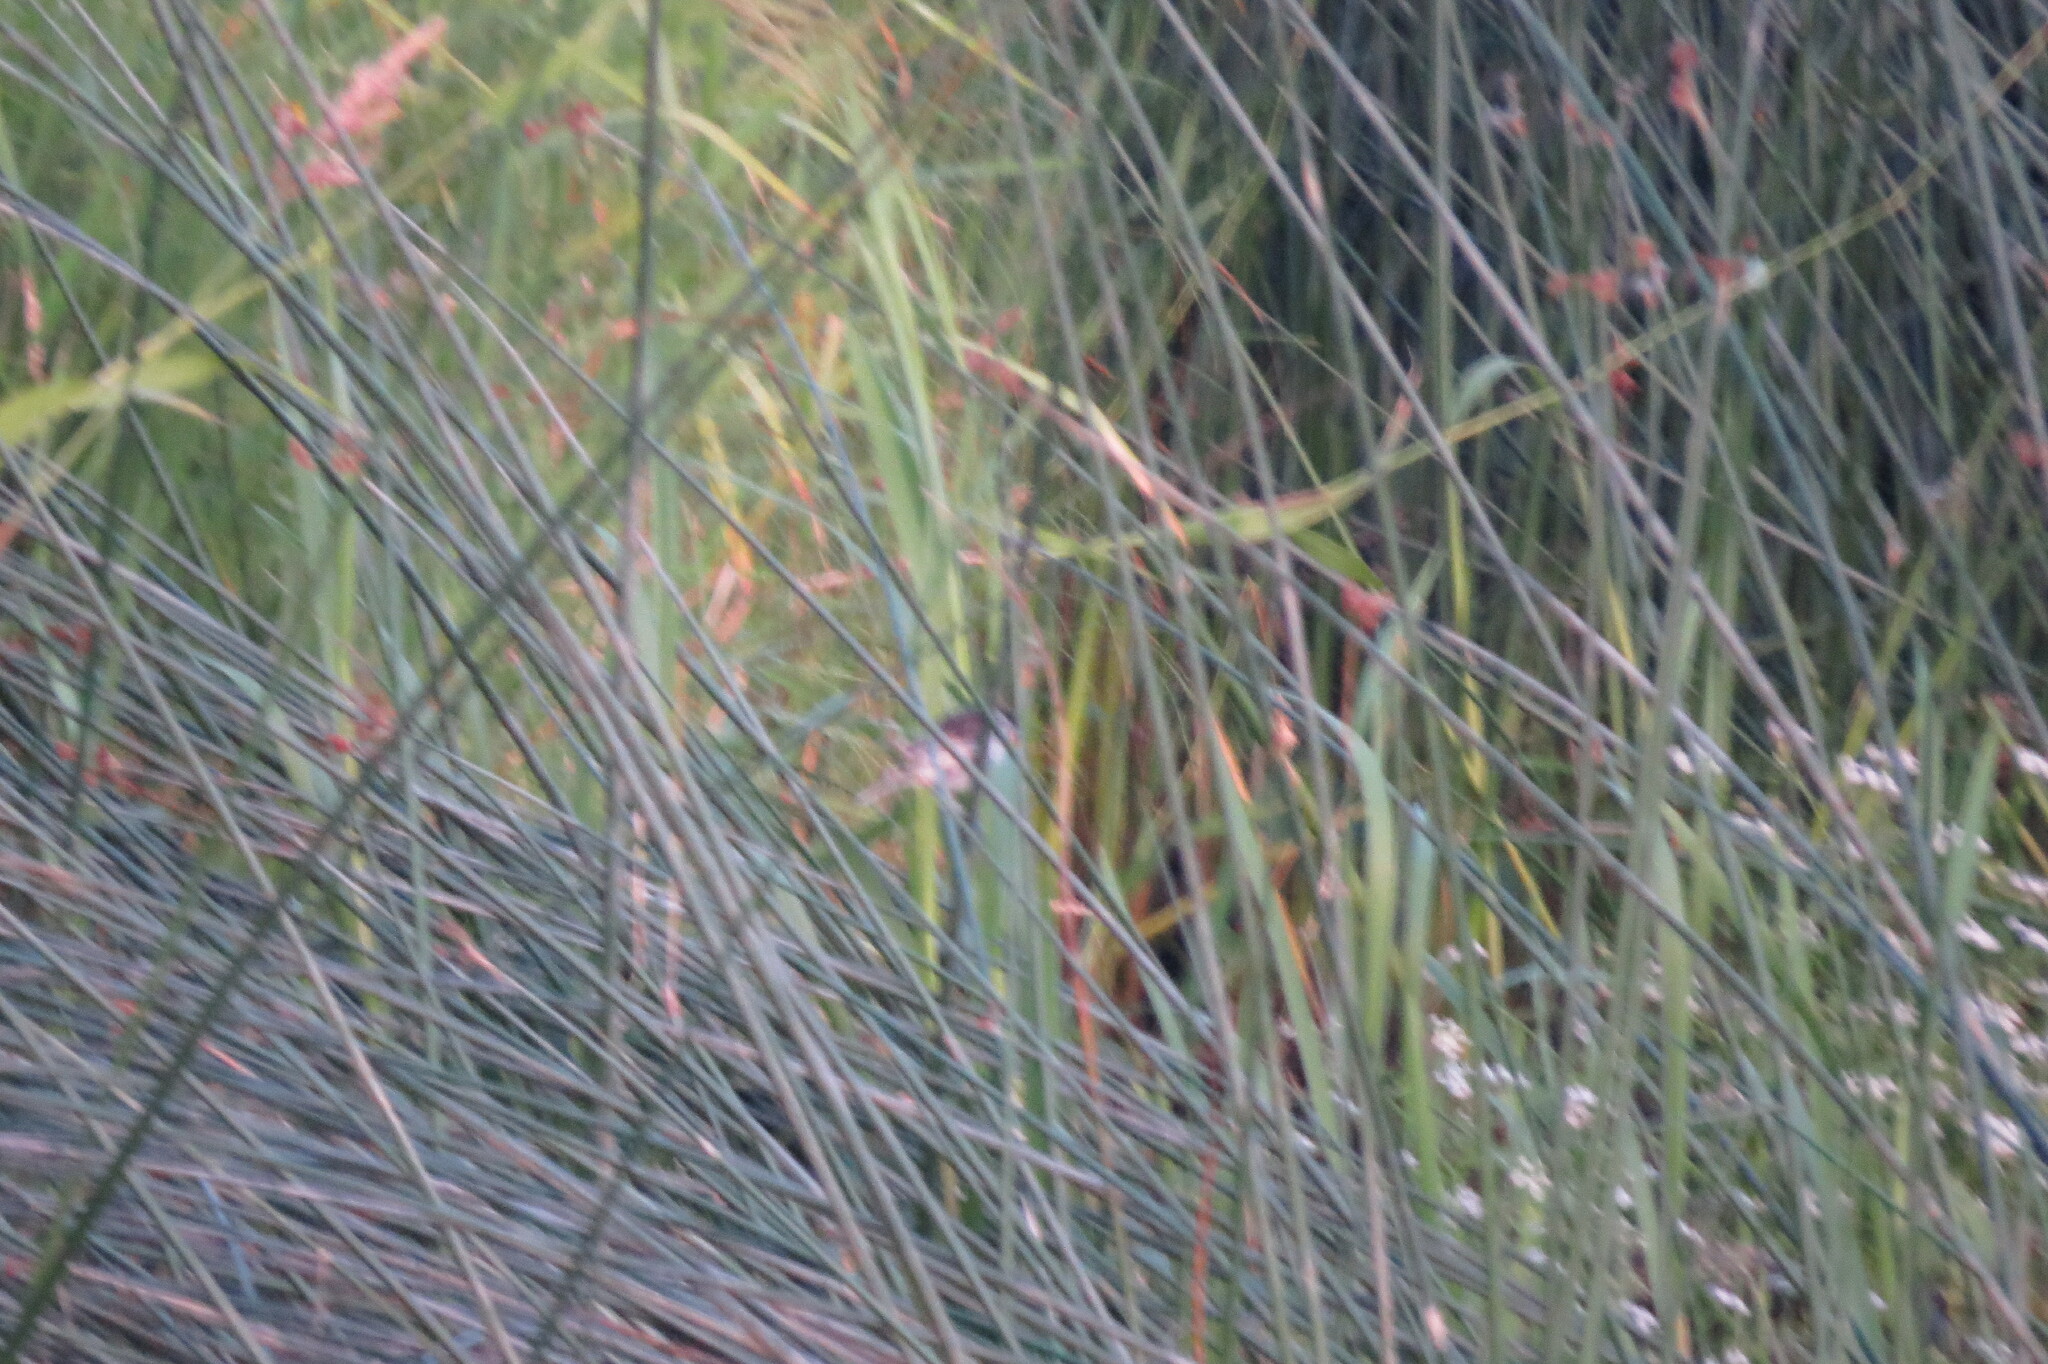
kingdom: Animalia
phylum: Chordata
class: Aves
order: Passeriformes
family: Emberizidae
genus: Emberiza
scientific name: Emberiza schoeniclus
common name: Reed bunting
